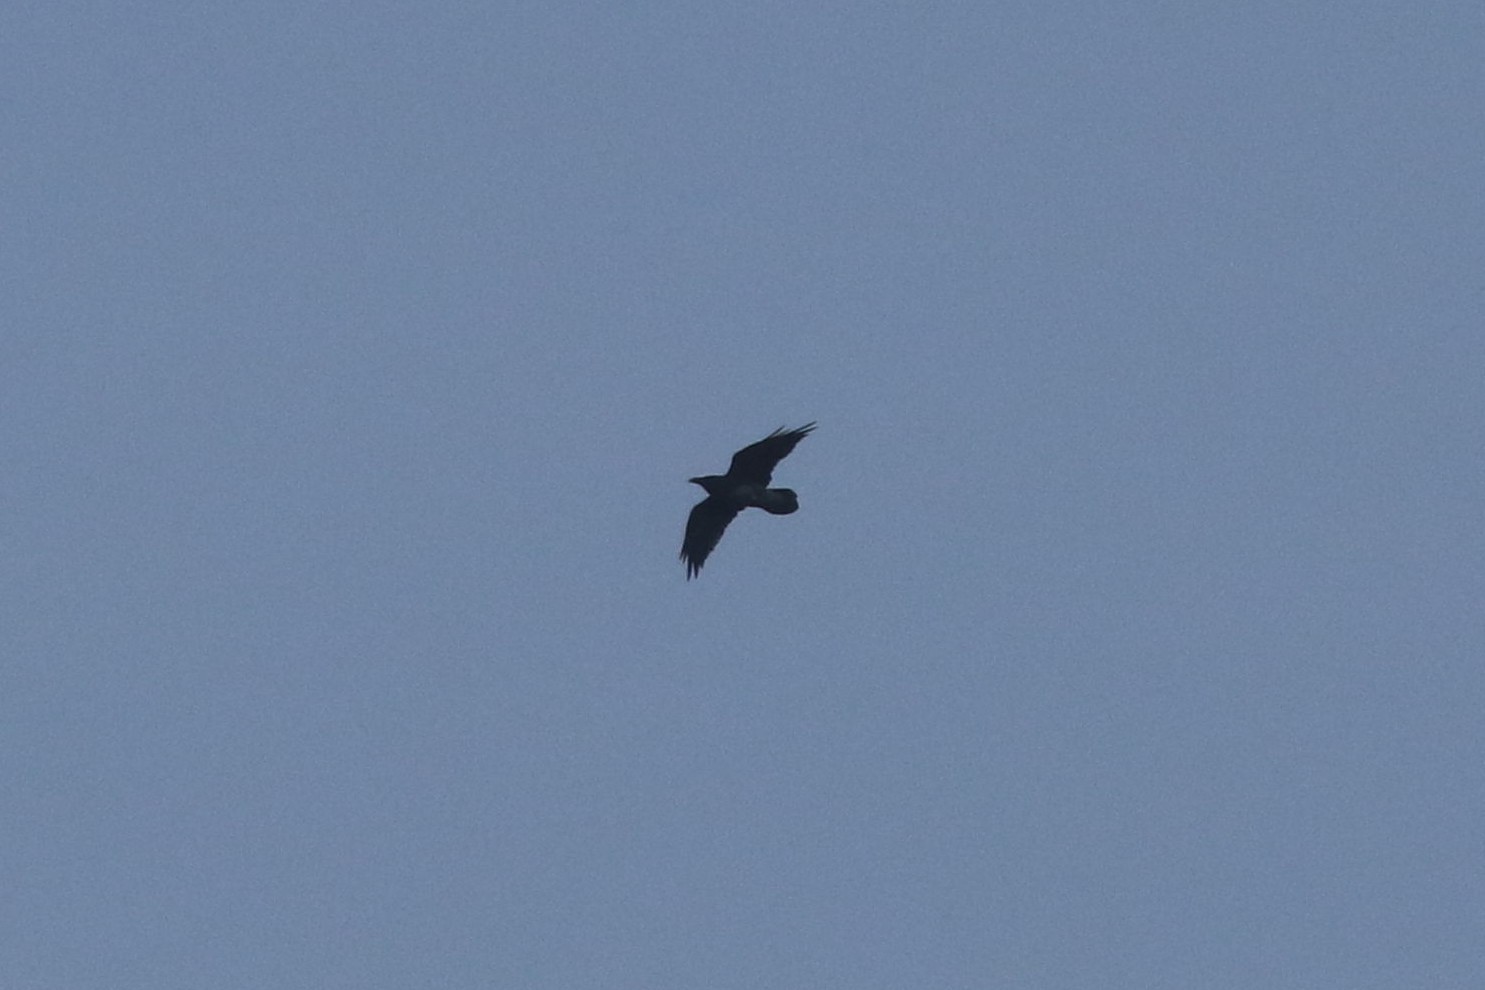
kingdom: Animalia
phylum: Chordata
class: Aves
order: Passeriformes
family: Corvidae
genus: Corvus
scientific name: Corvus corax
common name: Common raven
